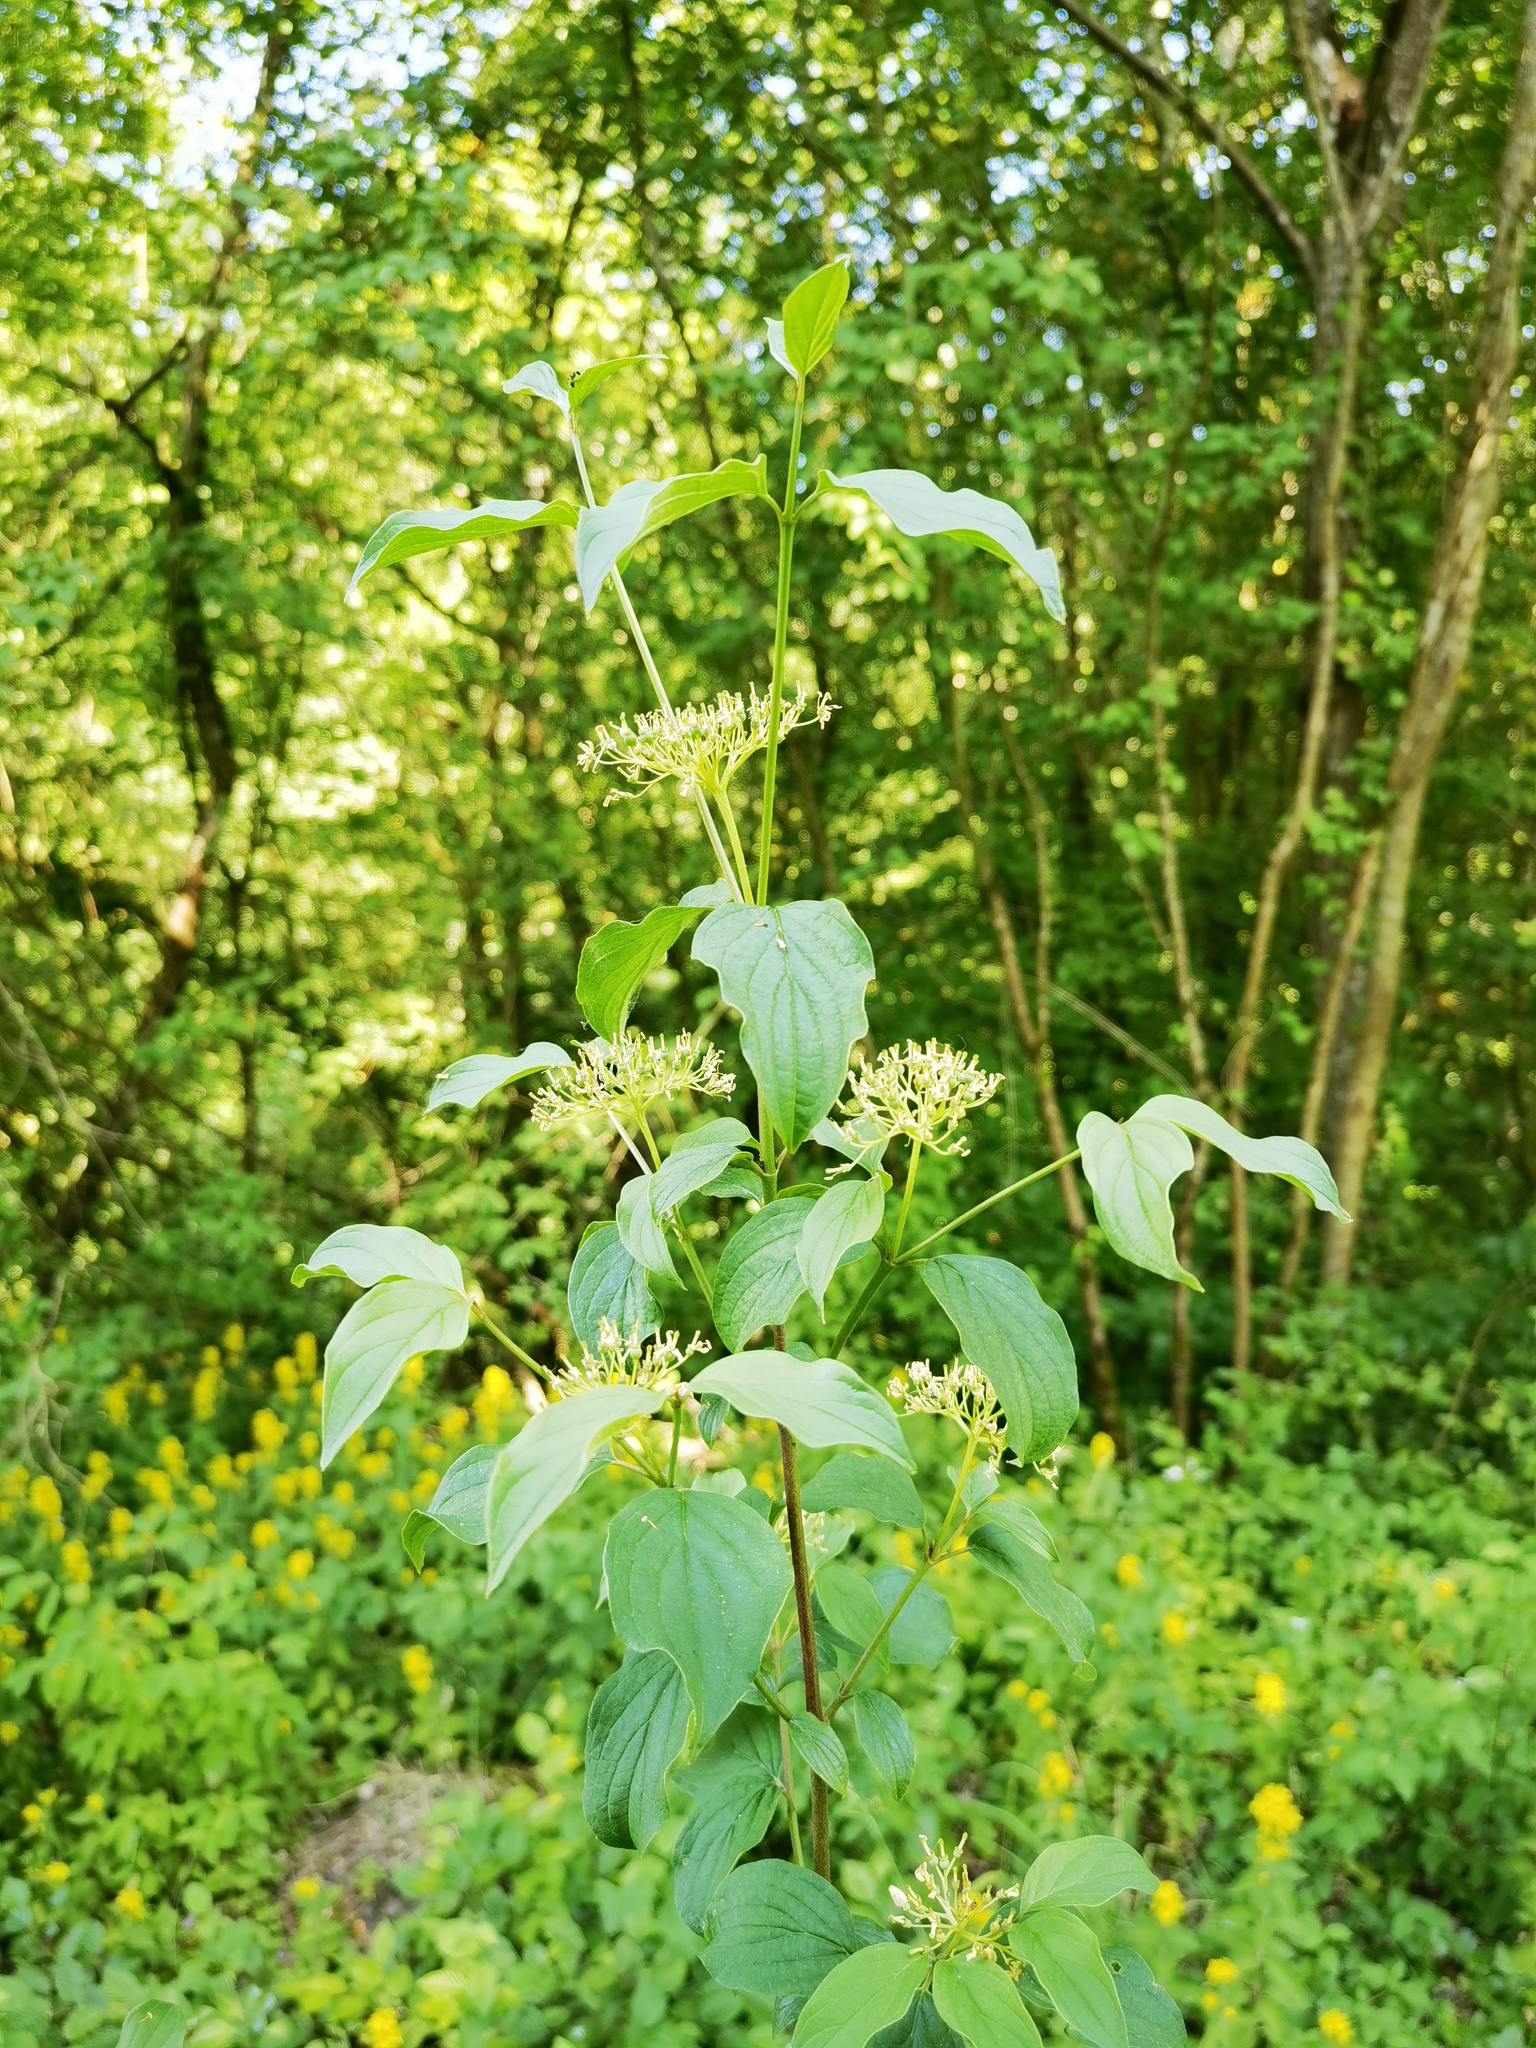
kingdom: Plantae
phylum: Tracheophyta
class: Magnoliopsida
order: Cornales
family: Cornaceae
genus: Cornus
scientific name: Cornus sanguinea
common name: Dogwood
